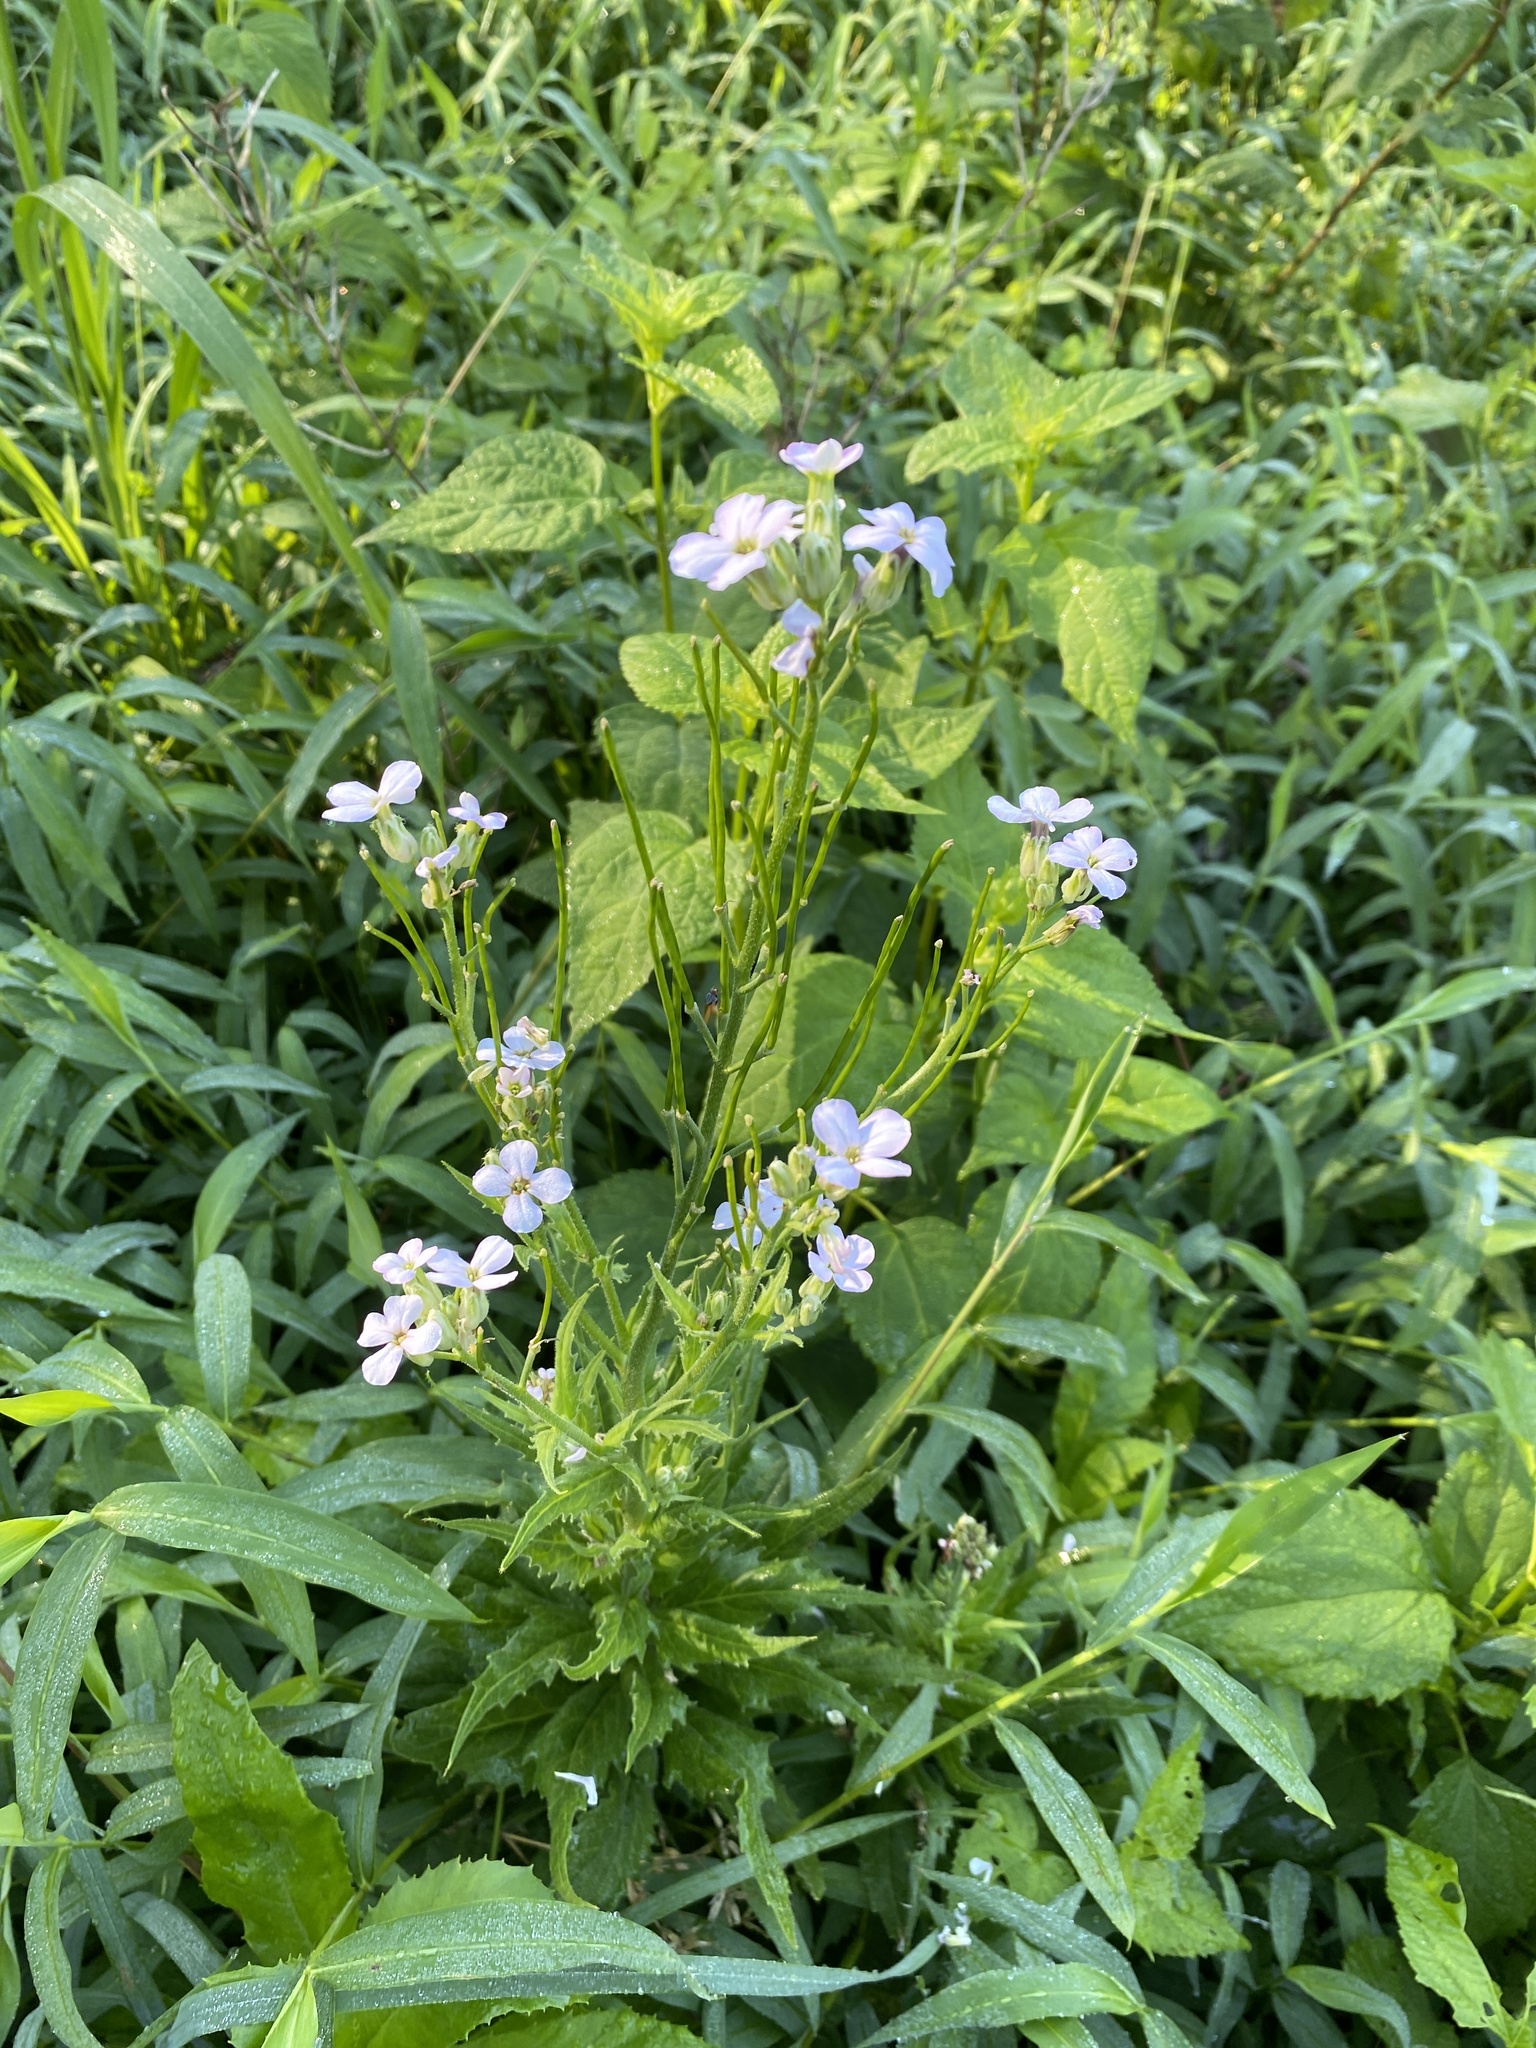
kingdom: Plantae
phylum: Tracheophyta
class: Magnoliopsida
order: Brassicales
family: Brassicaceae
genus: Hesperis
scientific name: Hesperis matronalis
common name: Dame's-violet
